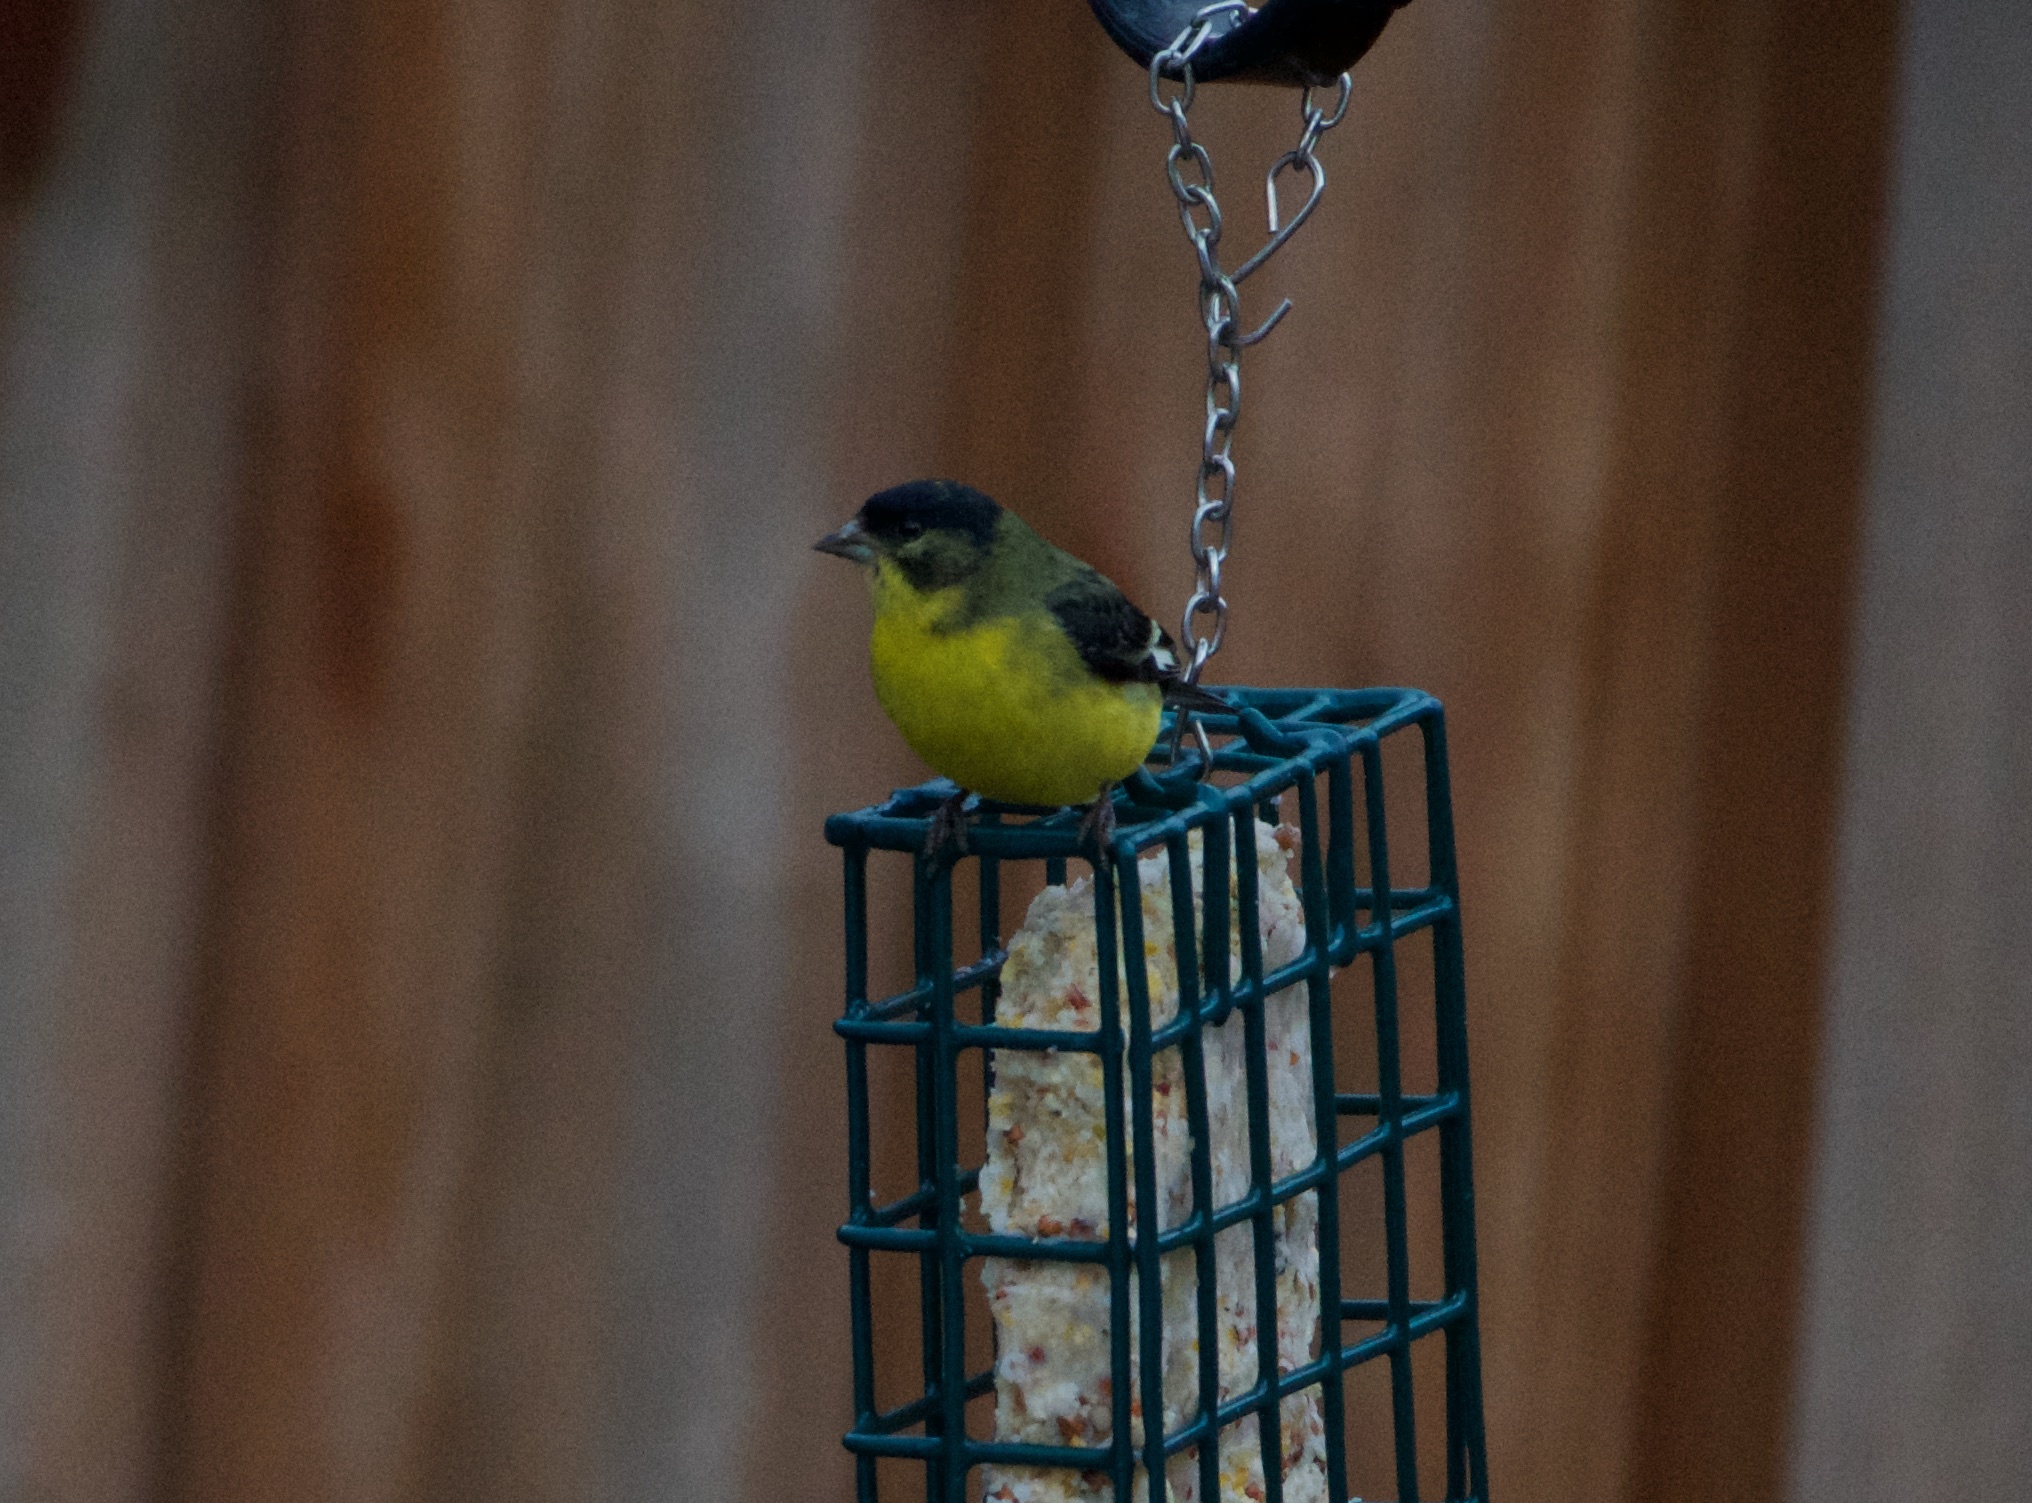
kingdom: Animalia
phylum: Chordata
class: Aves
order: Passeriformes
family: Fringillidae
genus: Spinus
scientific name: Spinus psaltria
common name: Lesser goldfinch
